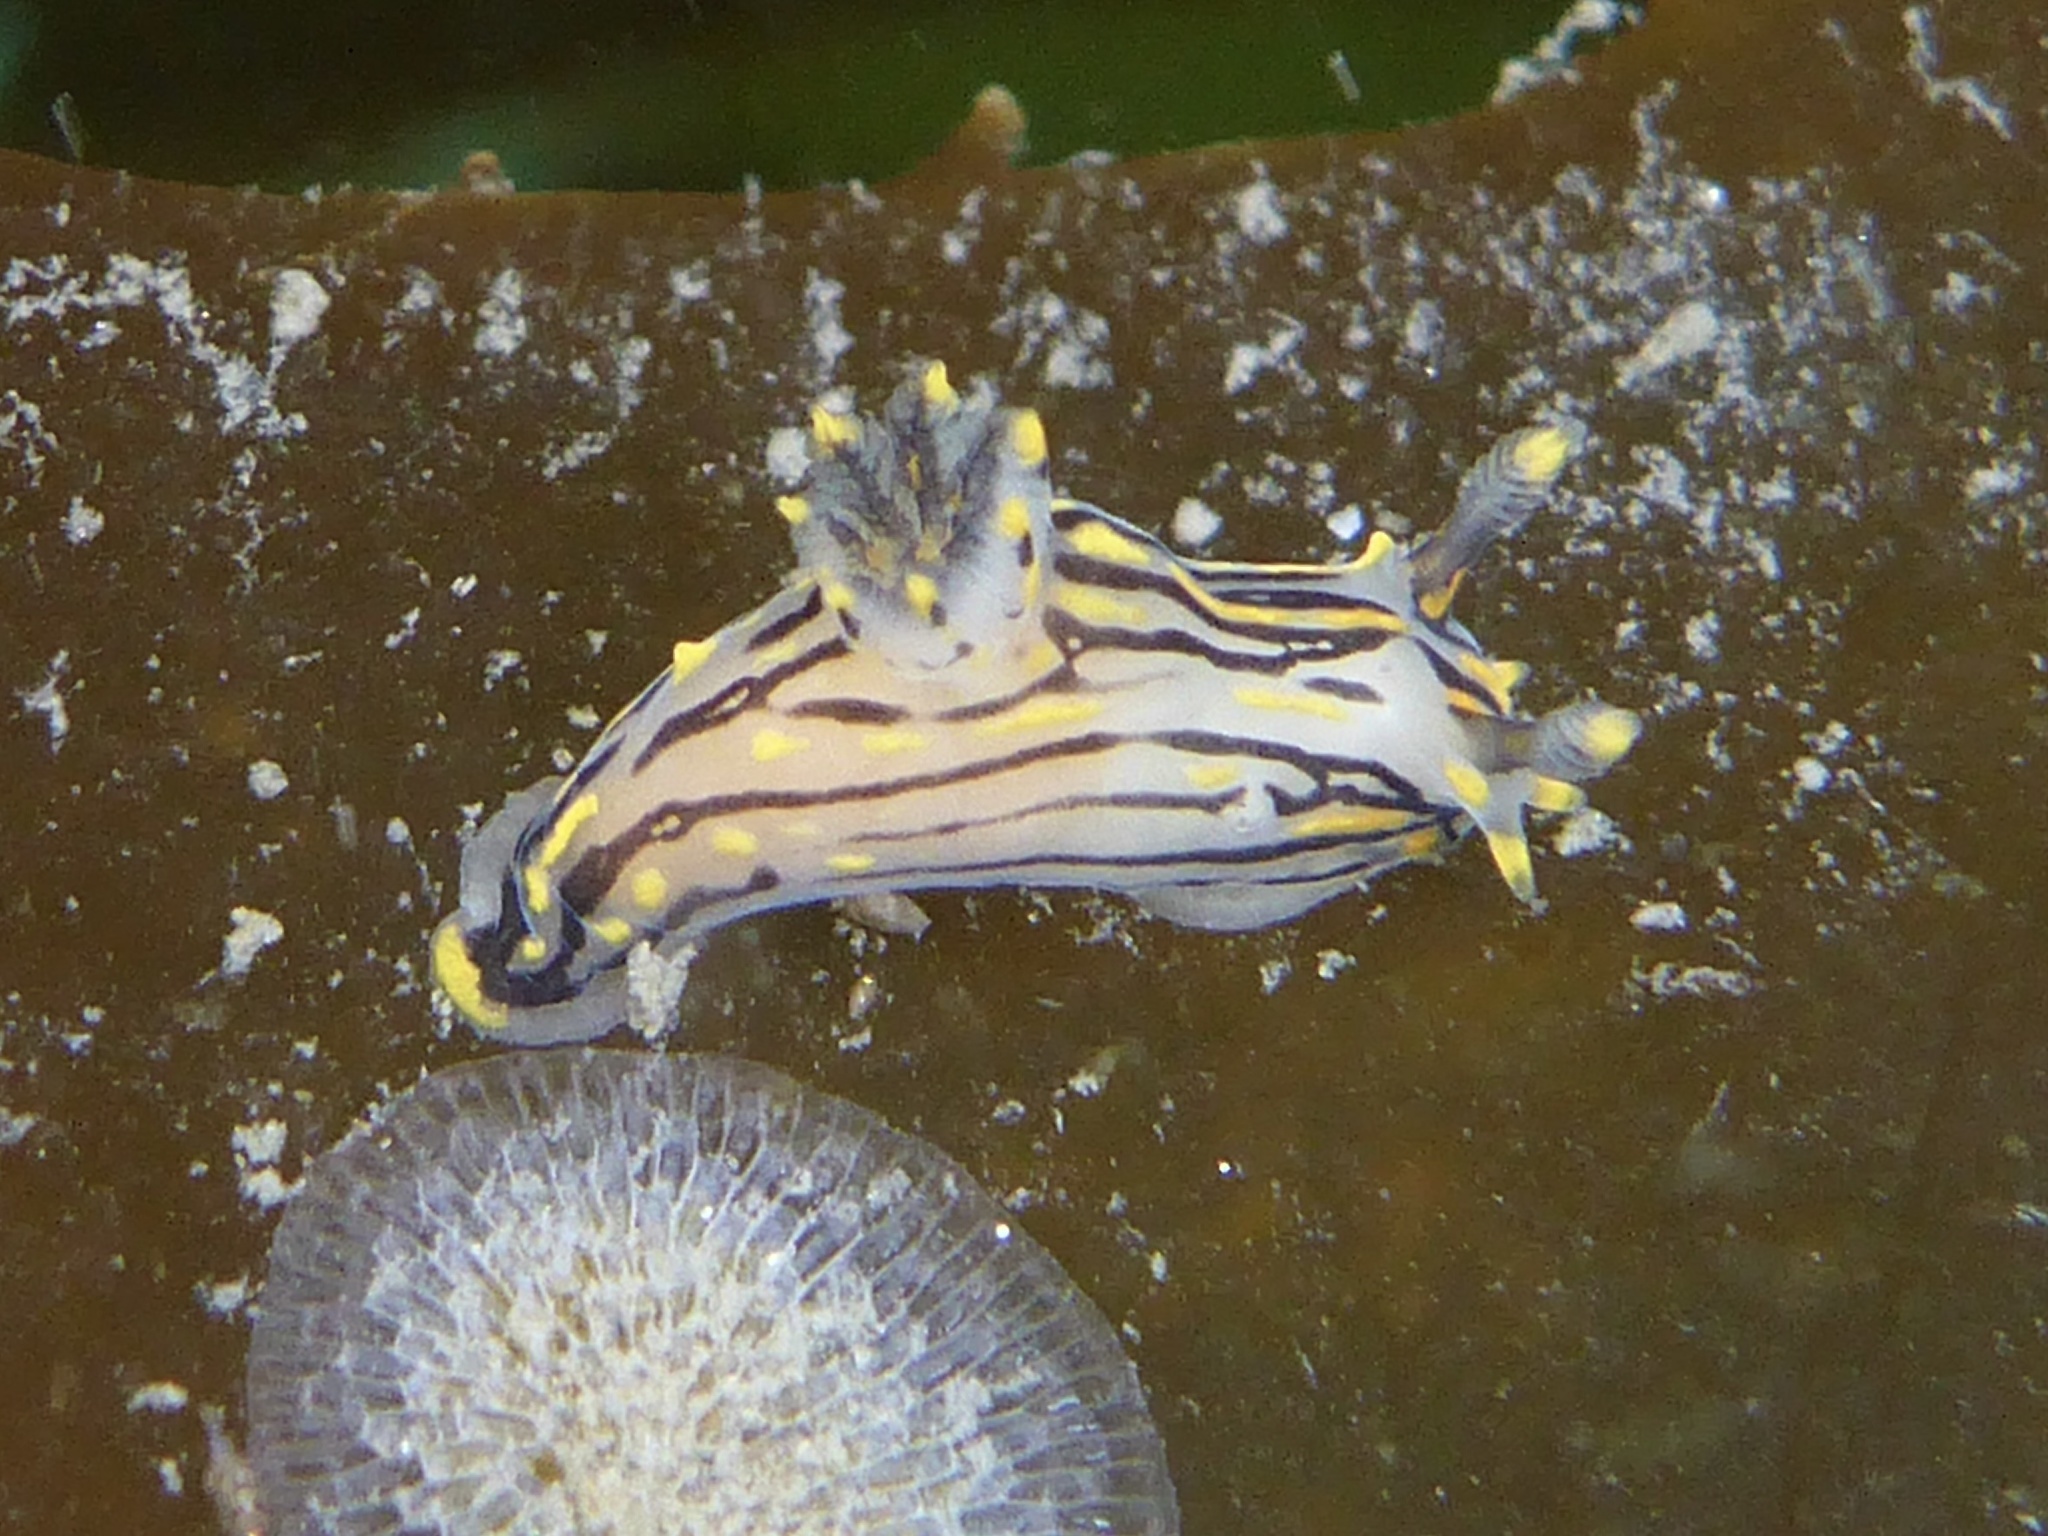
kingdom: Animalia
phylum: Mollusca
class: Gastropoda
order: Nudibranchia
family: Polyceridae
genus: Polycera
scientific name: Polycera atra
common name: Orange-spike polycera
